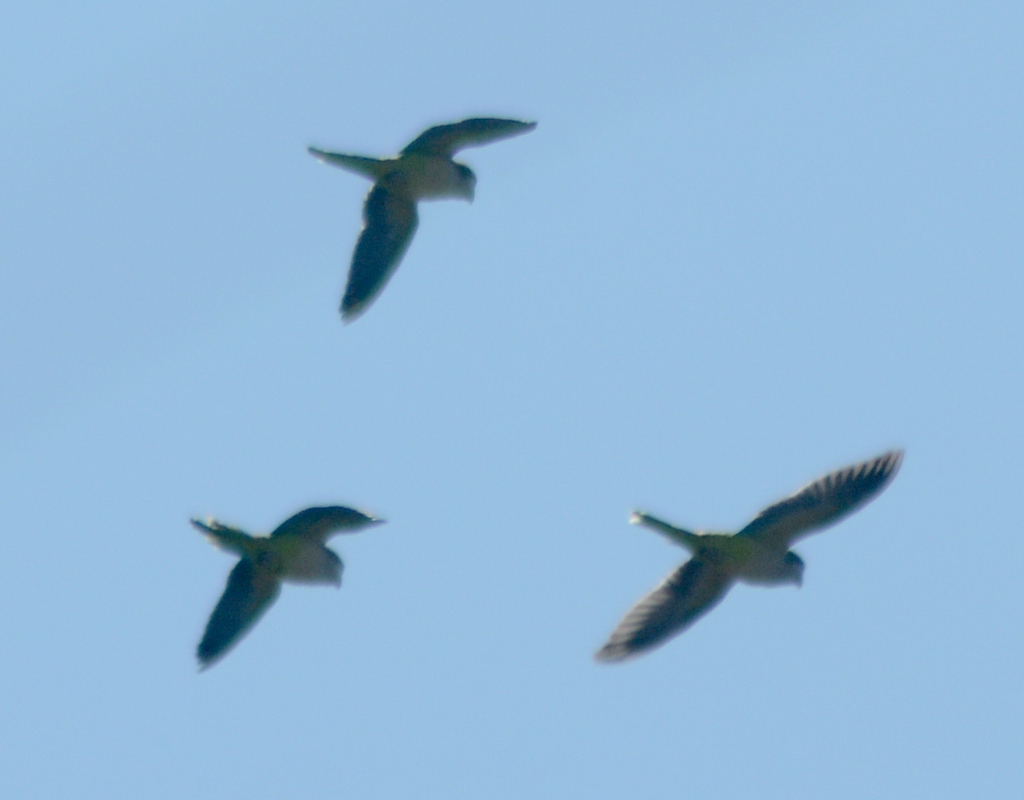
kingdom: Animalia
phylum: Chordata
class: Aves
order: Psittaciformes
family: Psittacidae
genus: Myiopsitta
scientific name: Myiopsitta monachus
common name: Monk parakeet
